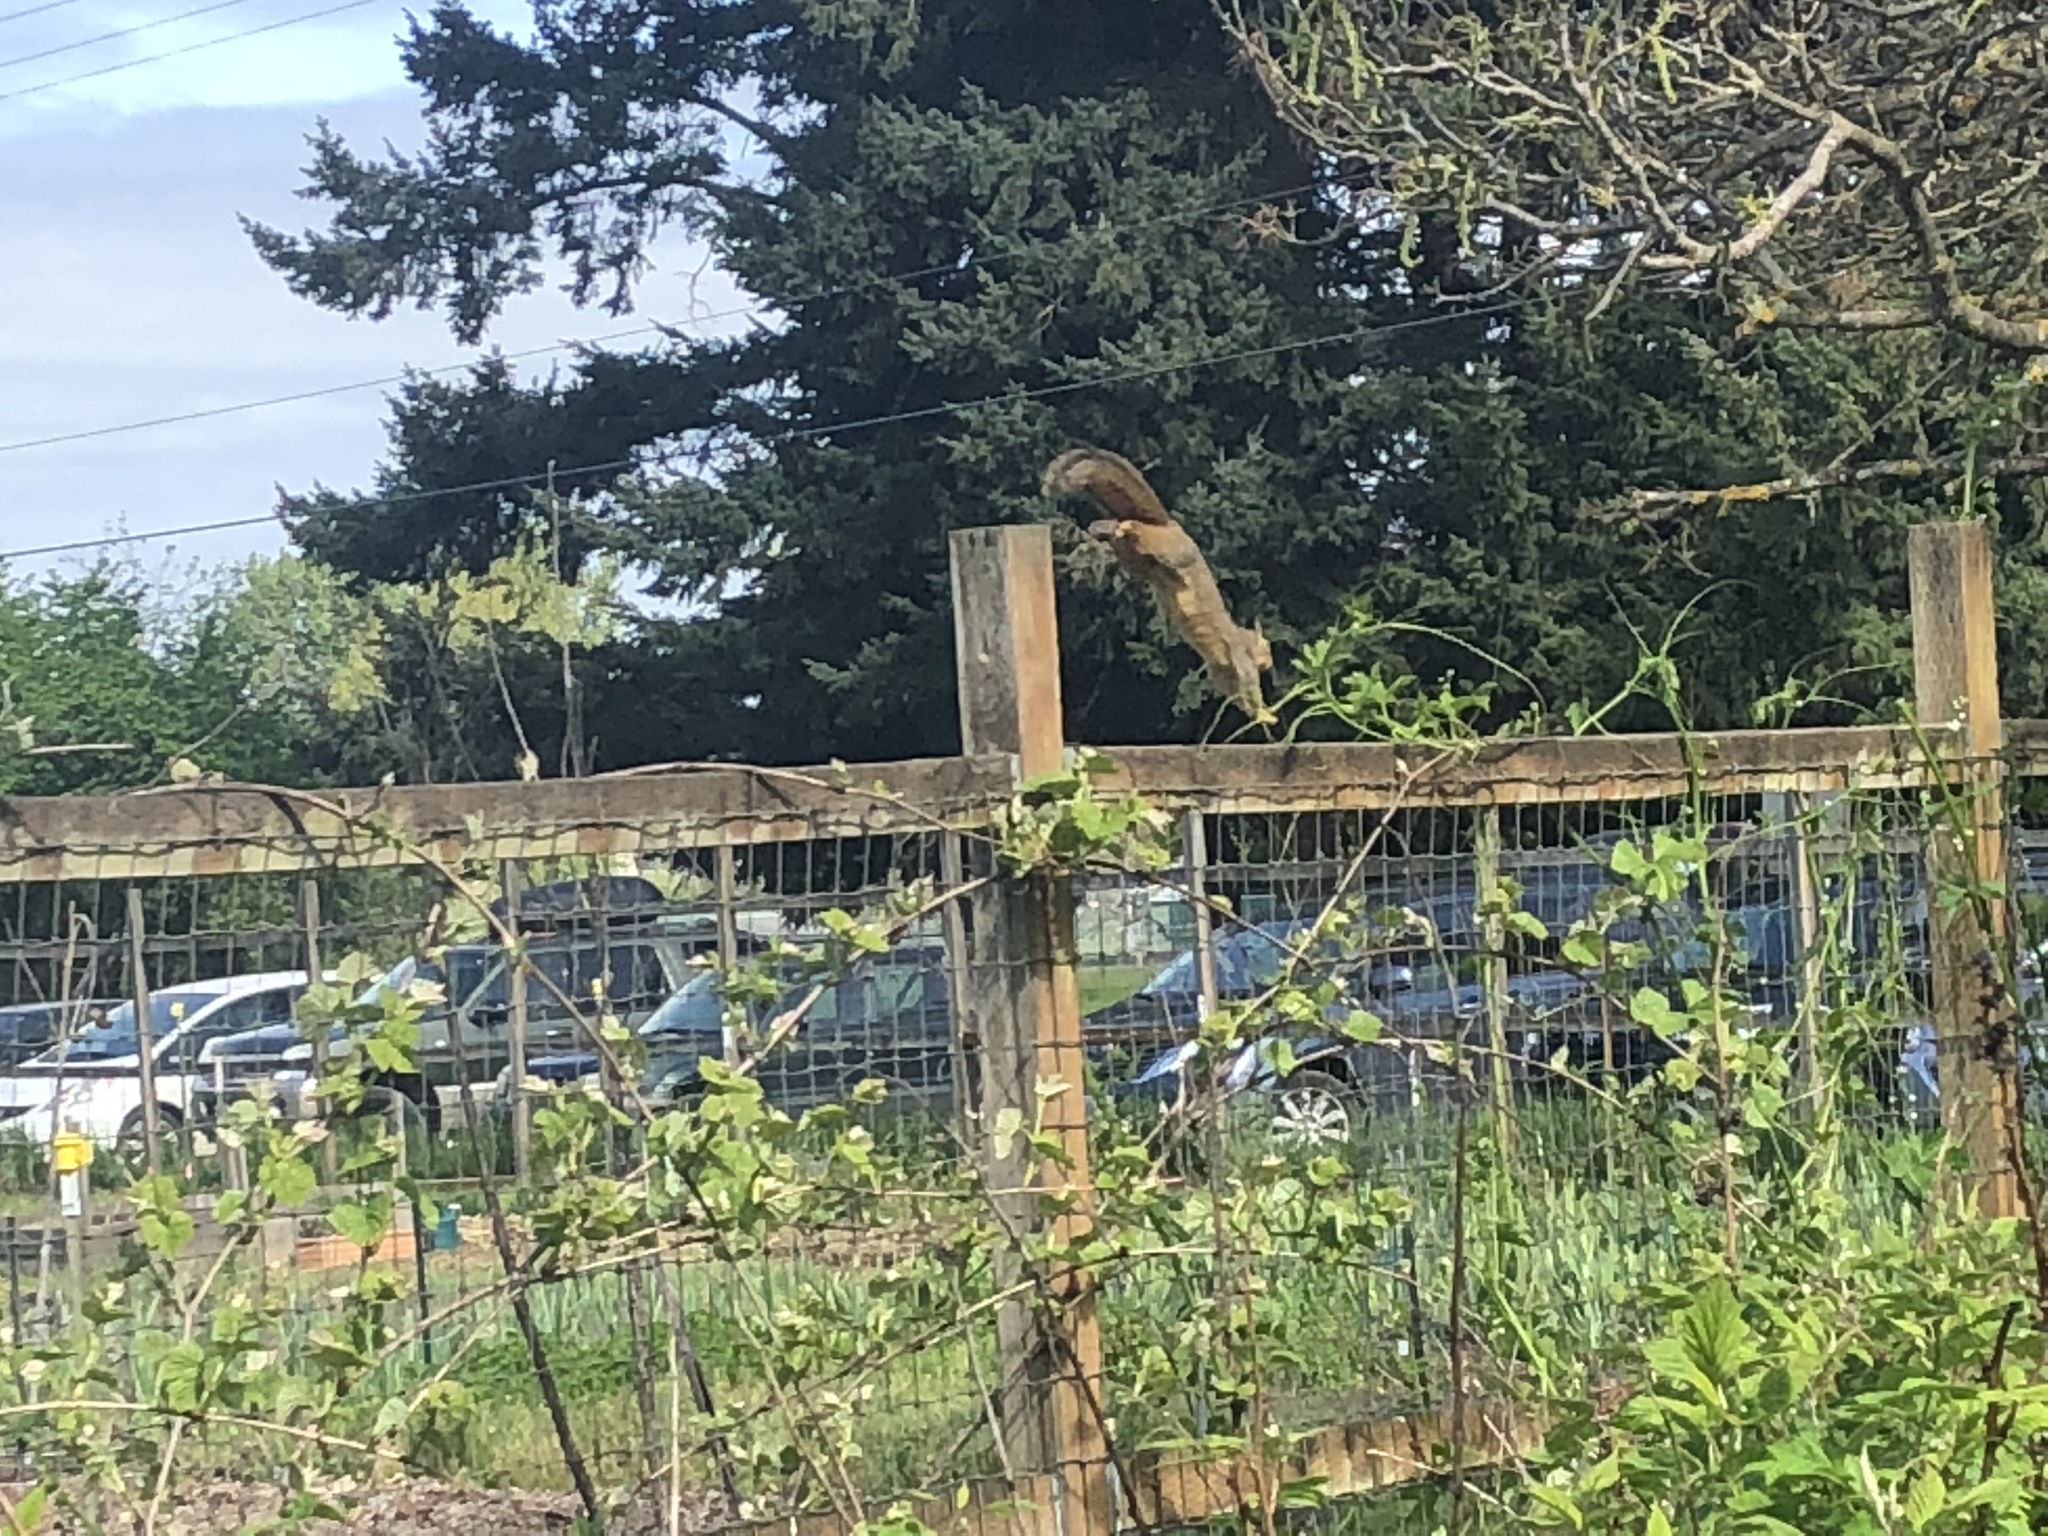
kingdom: Animalia
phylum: Chordata
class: Mammalia
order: Rodentia
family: Sciuridae
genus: Sciurus
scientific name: Sciurus niger
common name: Fox squirrel
